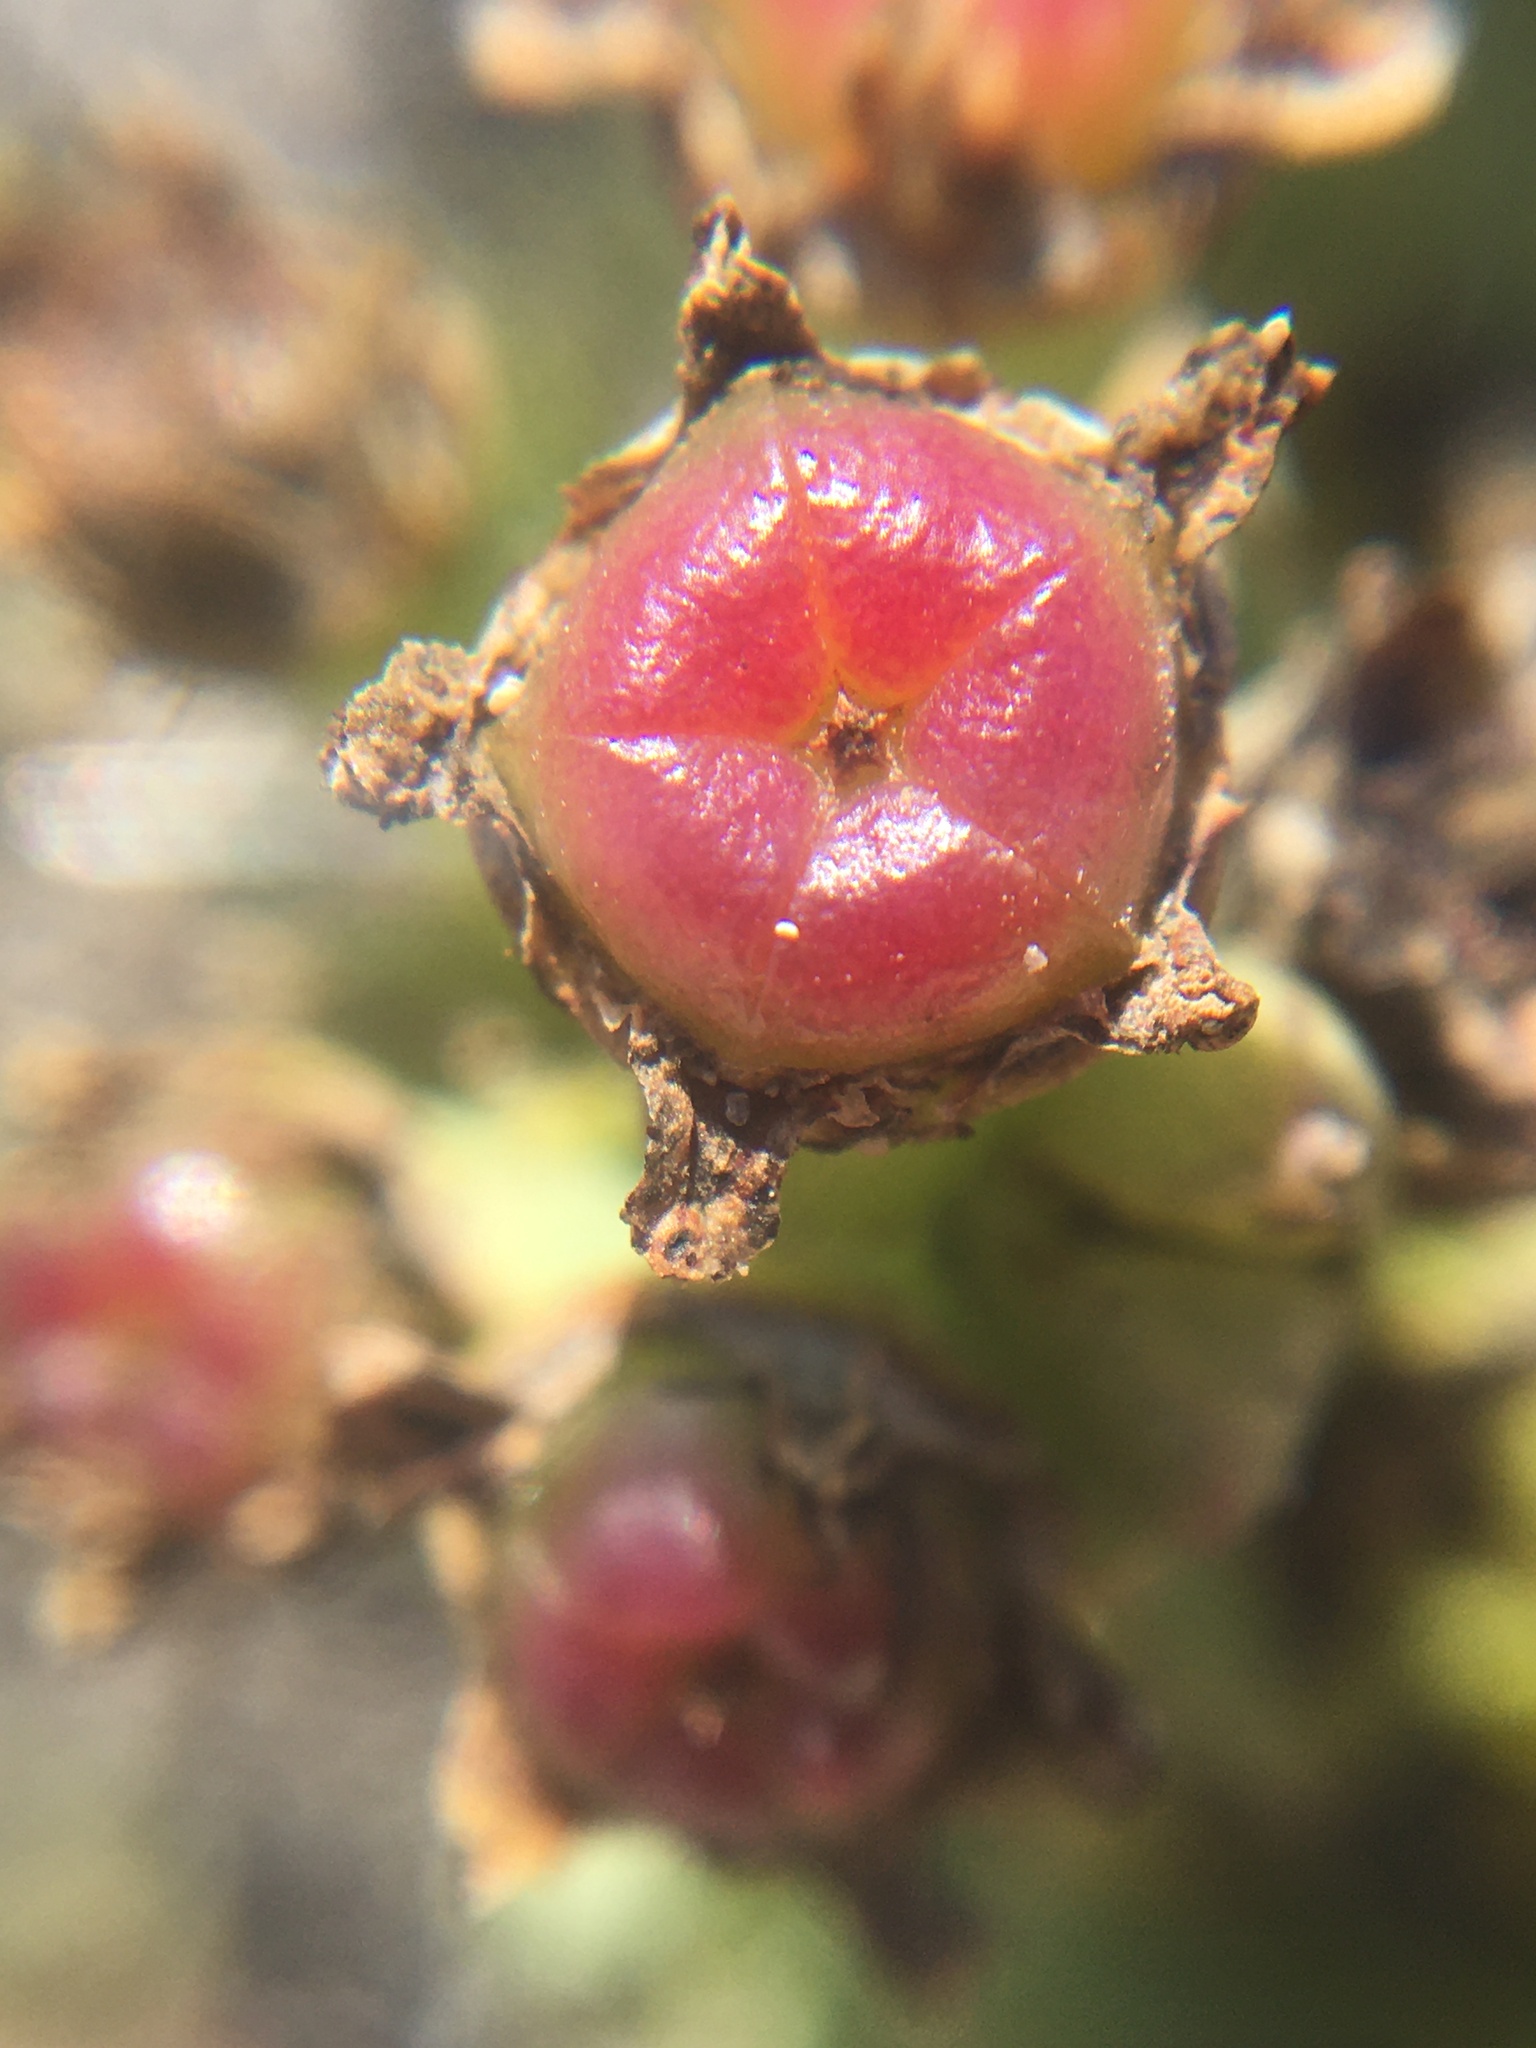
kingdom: Plantae
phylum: Tracheophyta
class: Magnoliopsida
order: Caryophyllales
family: Aizoaceae
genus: Ruschia
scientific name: Ruschia
